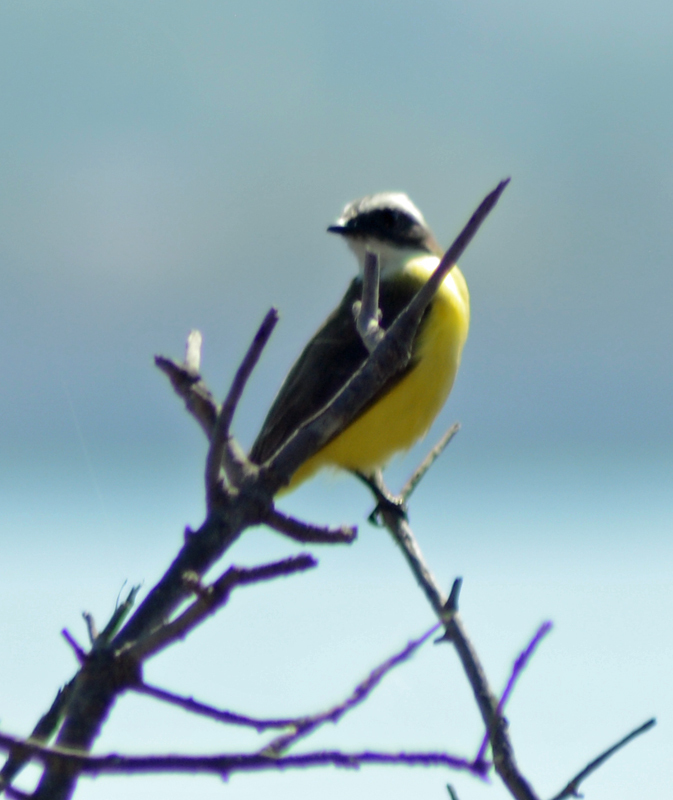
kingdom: Animalia
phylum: Chordata
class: Aves
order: Passeriformes
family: Tyrannidae
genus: Myiozetetes
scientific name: Myiozetetes similis
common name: Social flycatcher
